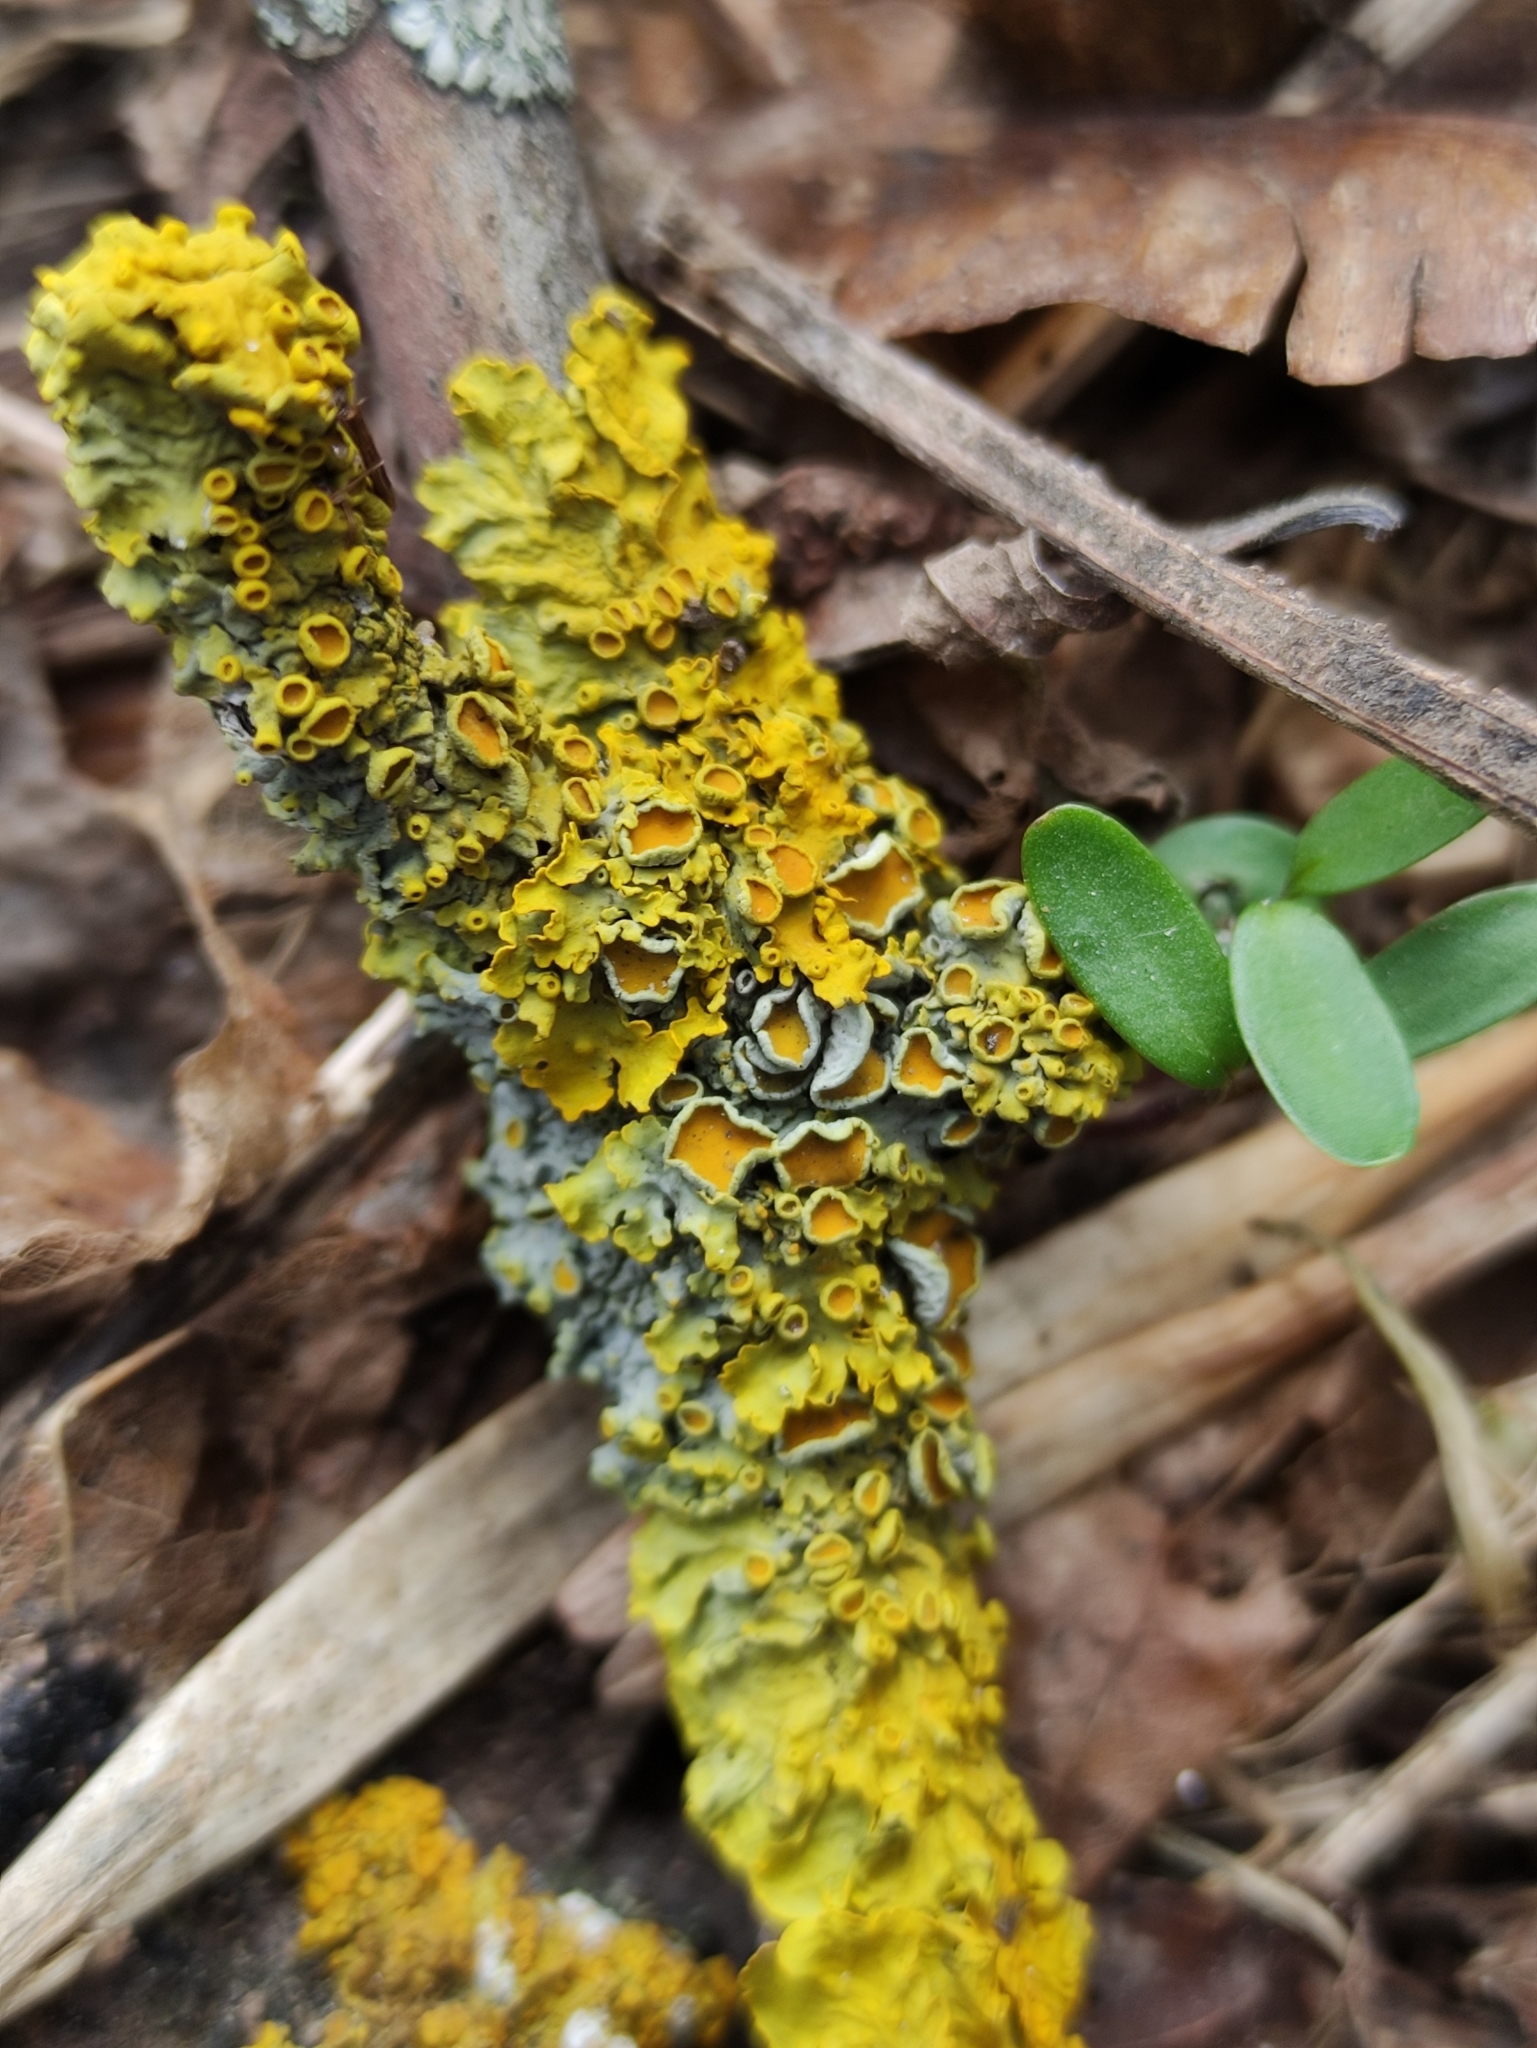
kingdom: Fungi
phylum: Ascomycota
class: Lecanoromycetes
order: Teloschistales
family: Teloschistaceae
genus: Xanthoria
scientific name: Xanthoria parietina
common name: Common orange lichen
